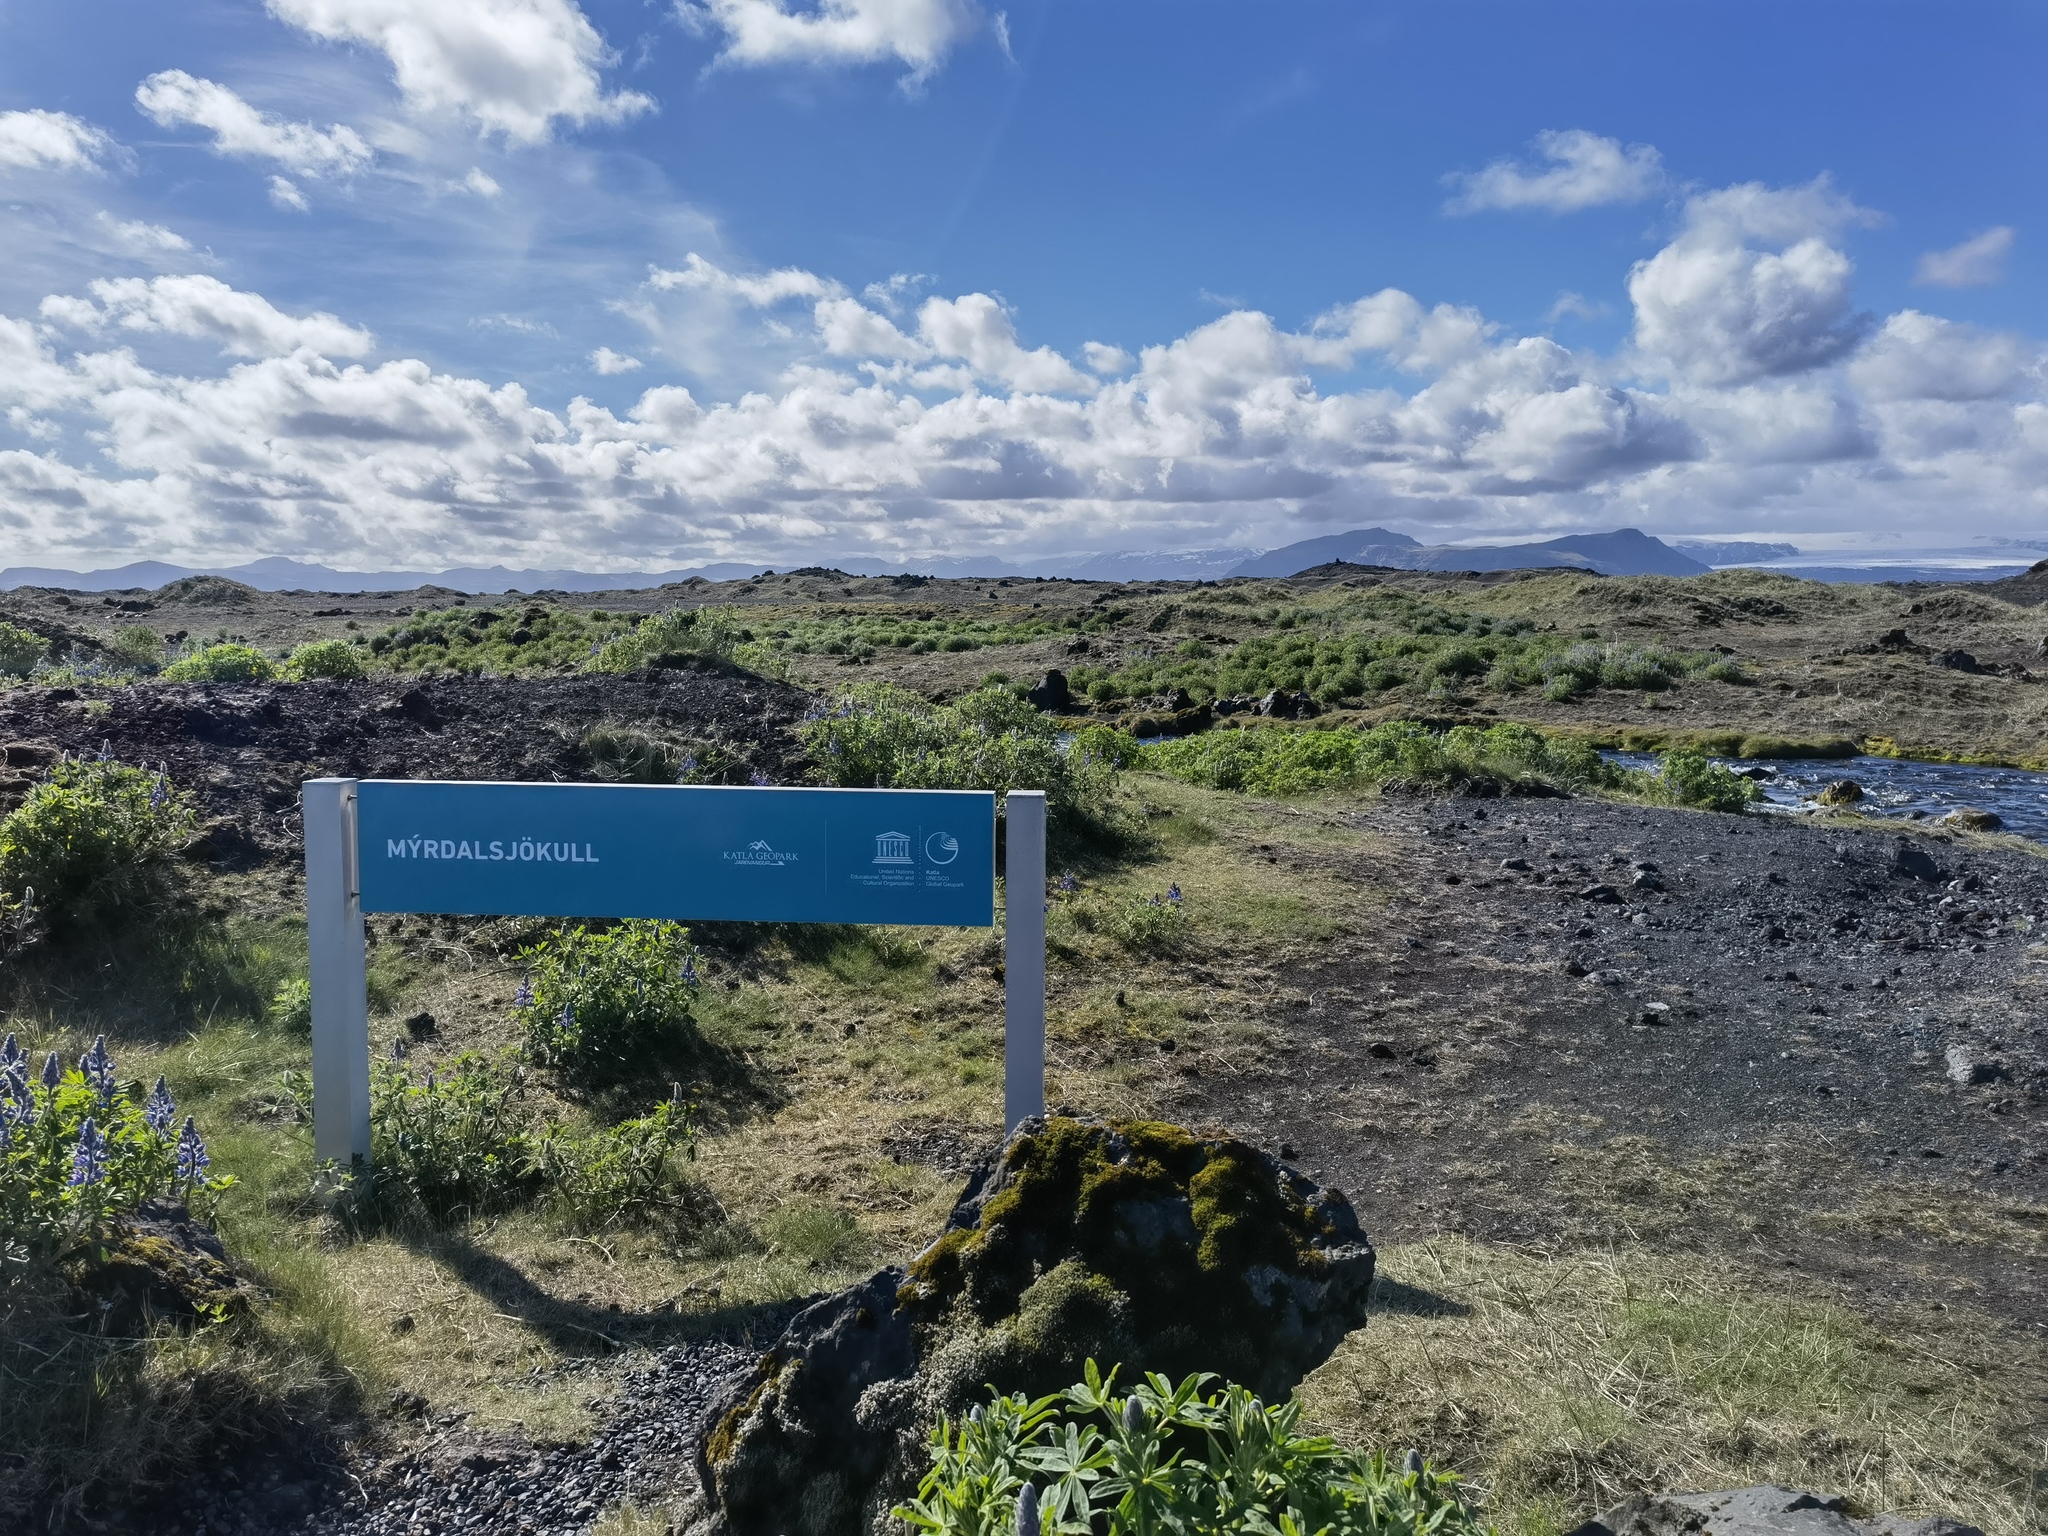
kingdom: Plantae
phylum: Tracheophyta
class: Magnoliopsida
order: Fabales
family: Fabaceae
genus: Lupinus
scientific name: Lupinus nootkatensis
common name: Nootka lupine
